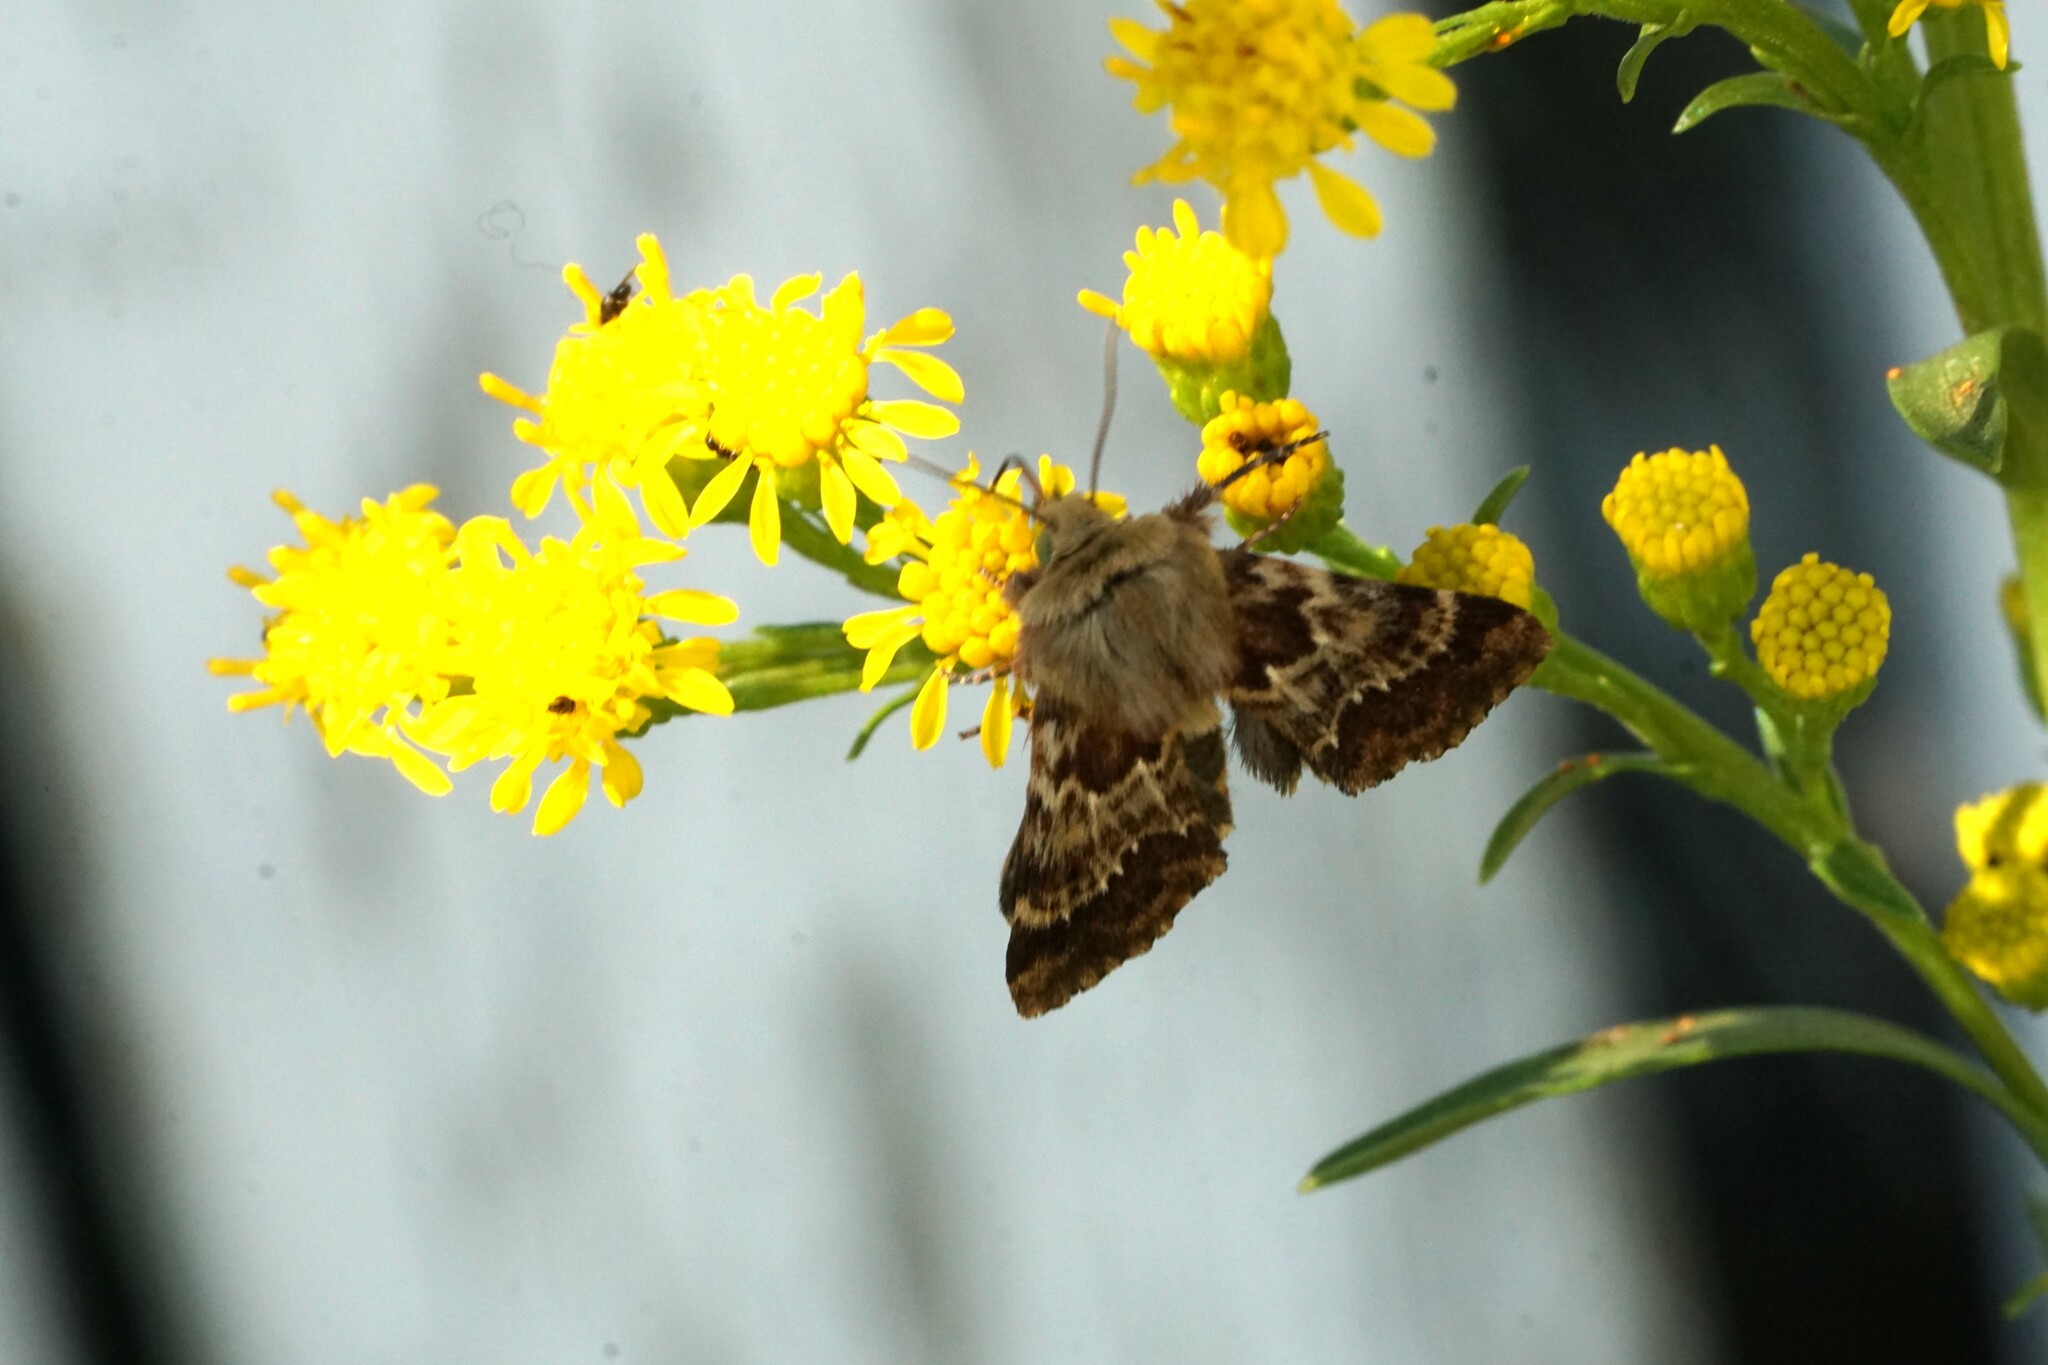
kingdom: Animalia
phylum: Arthropoda
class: Insecta
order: Lepidoptera
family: Noctuidae
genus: Schinia
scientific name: Schinia septentrionalis
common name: Northern flower moth
